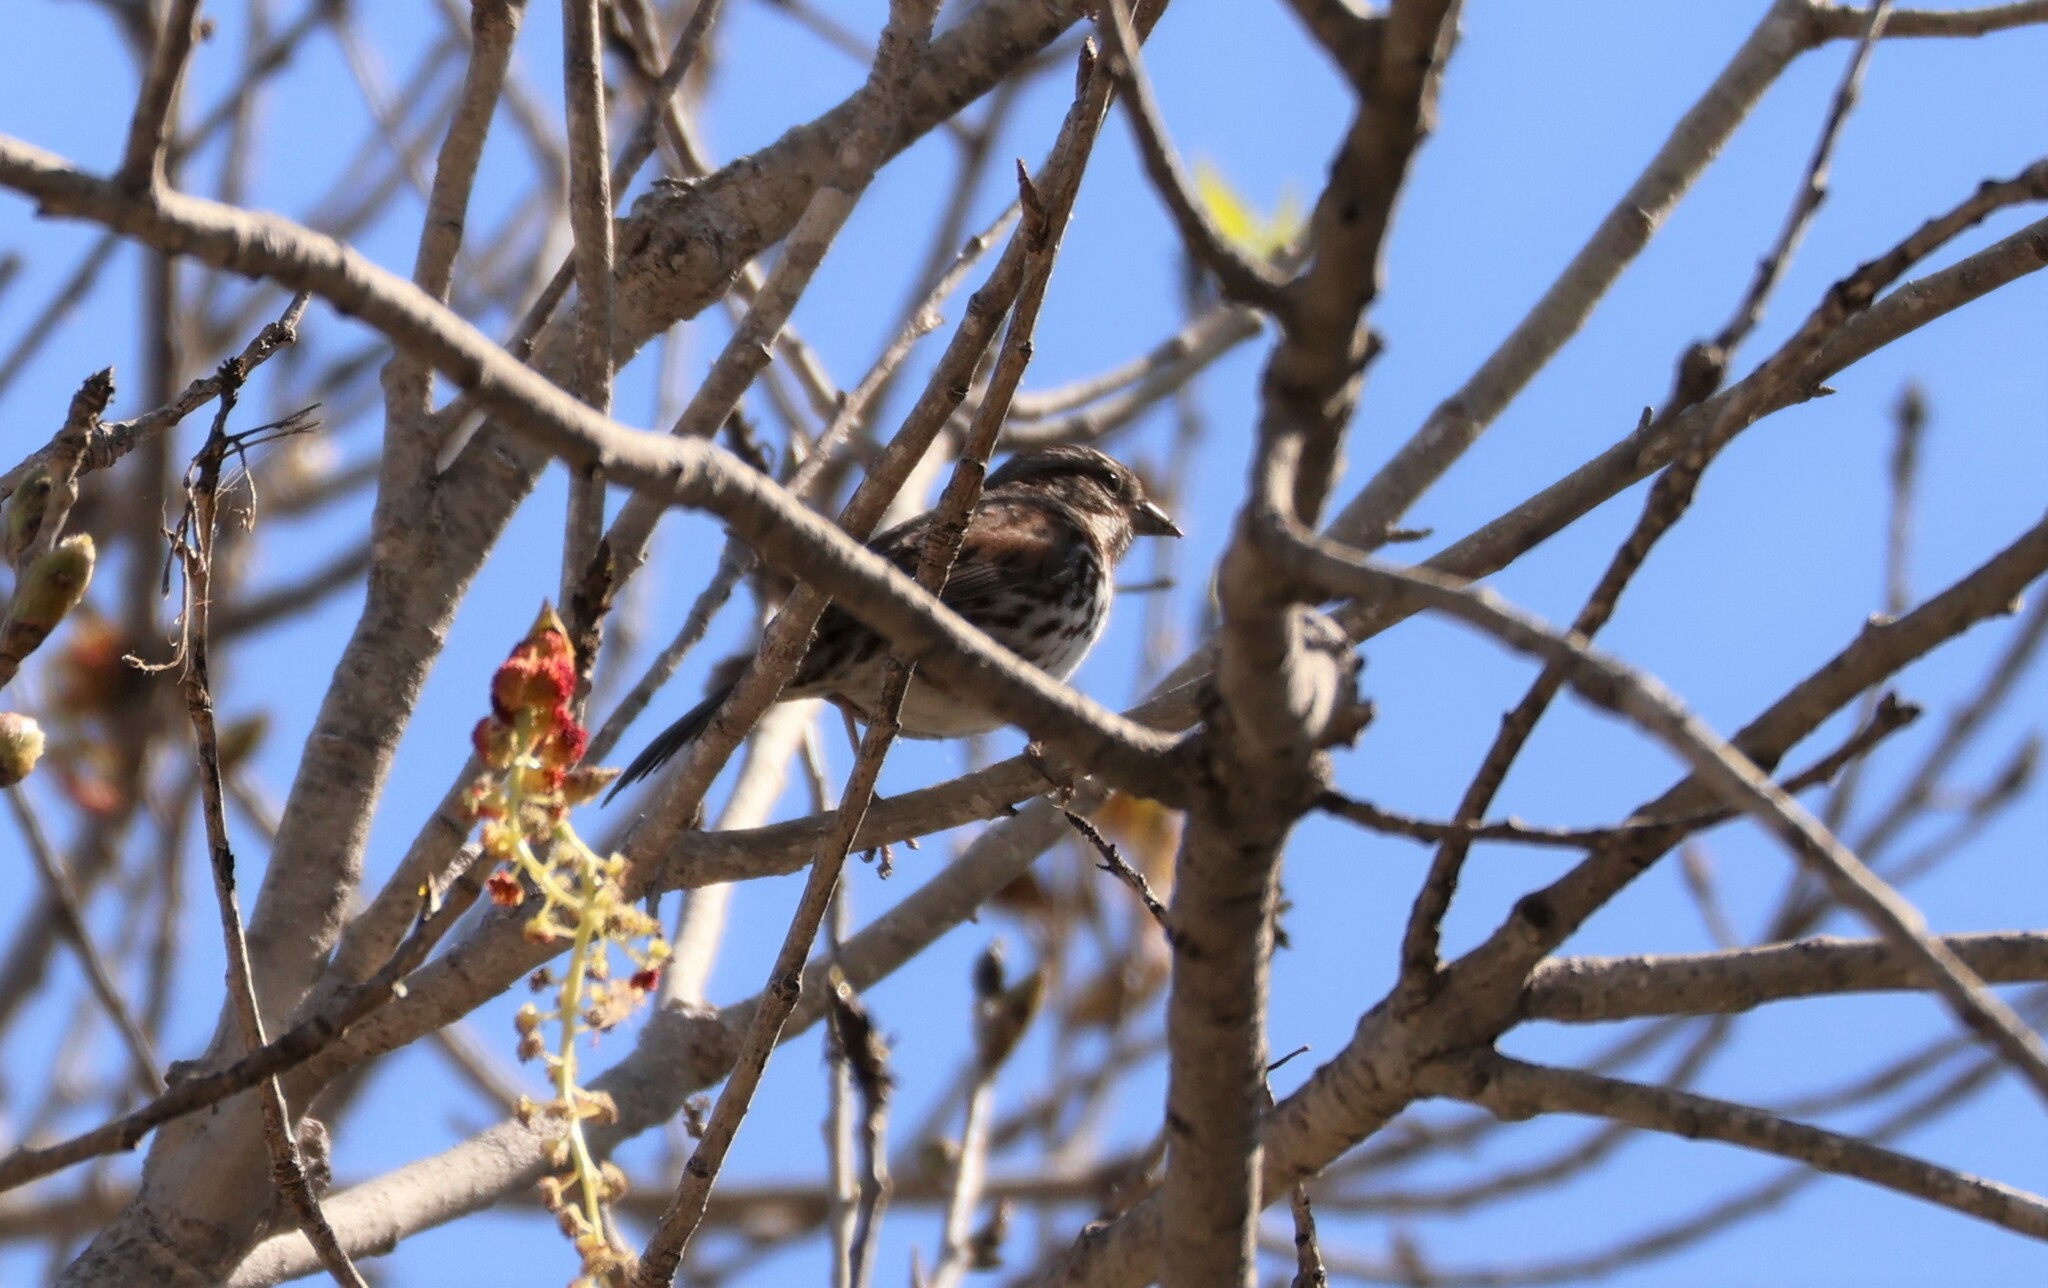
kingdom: Animalia
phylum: Chordata
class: Aves
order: Passeriformes
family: Passerellidae
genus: Melospiza
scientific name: Melospiza melodia
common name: Song sparrow
